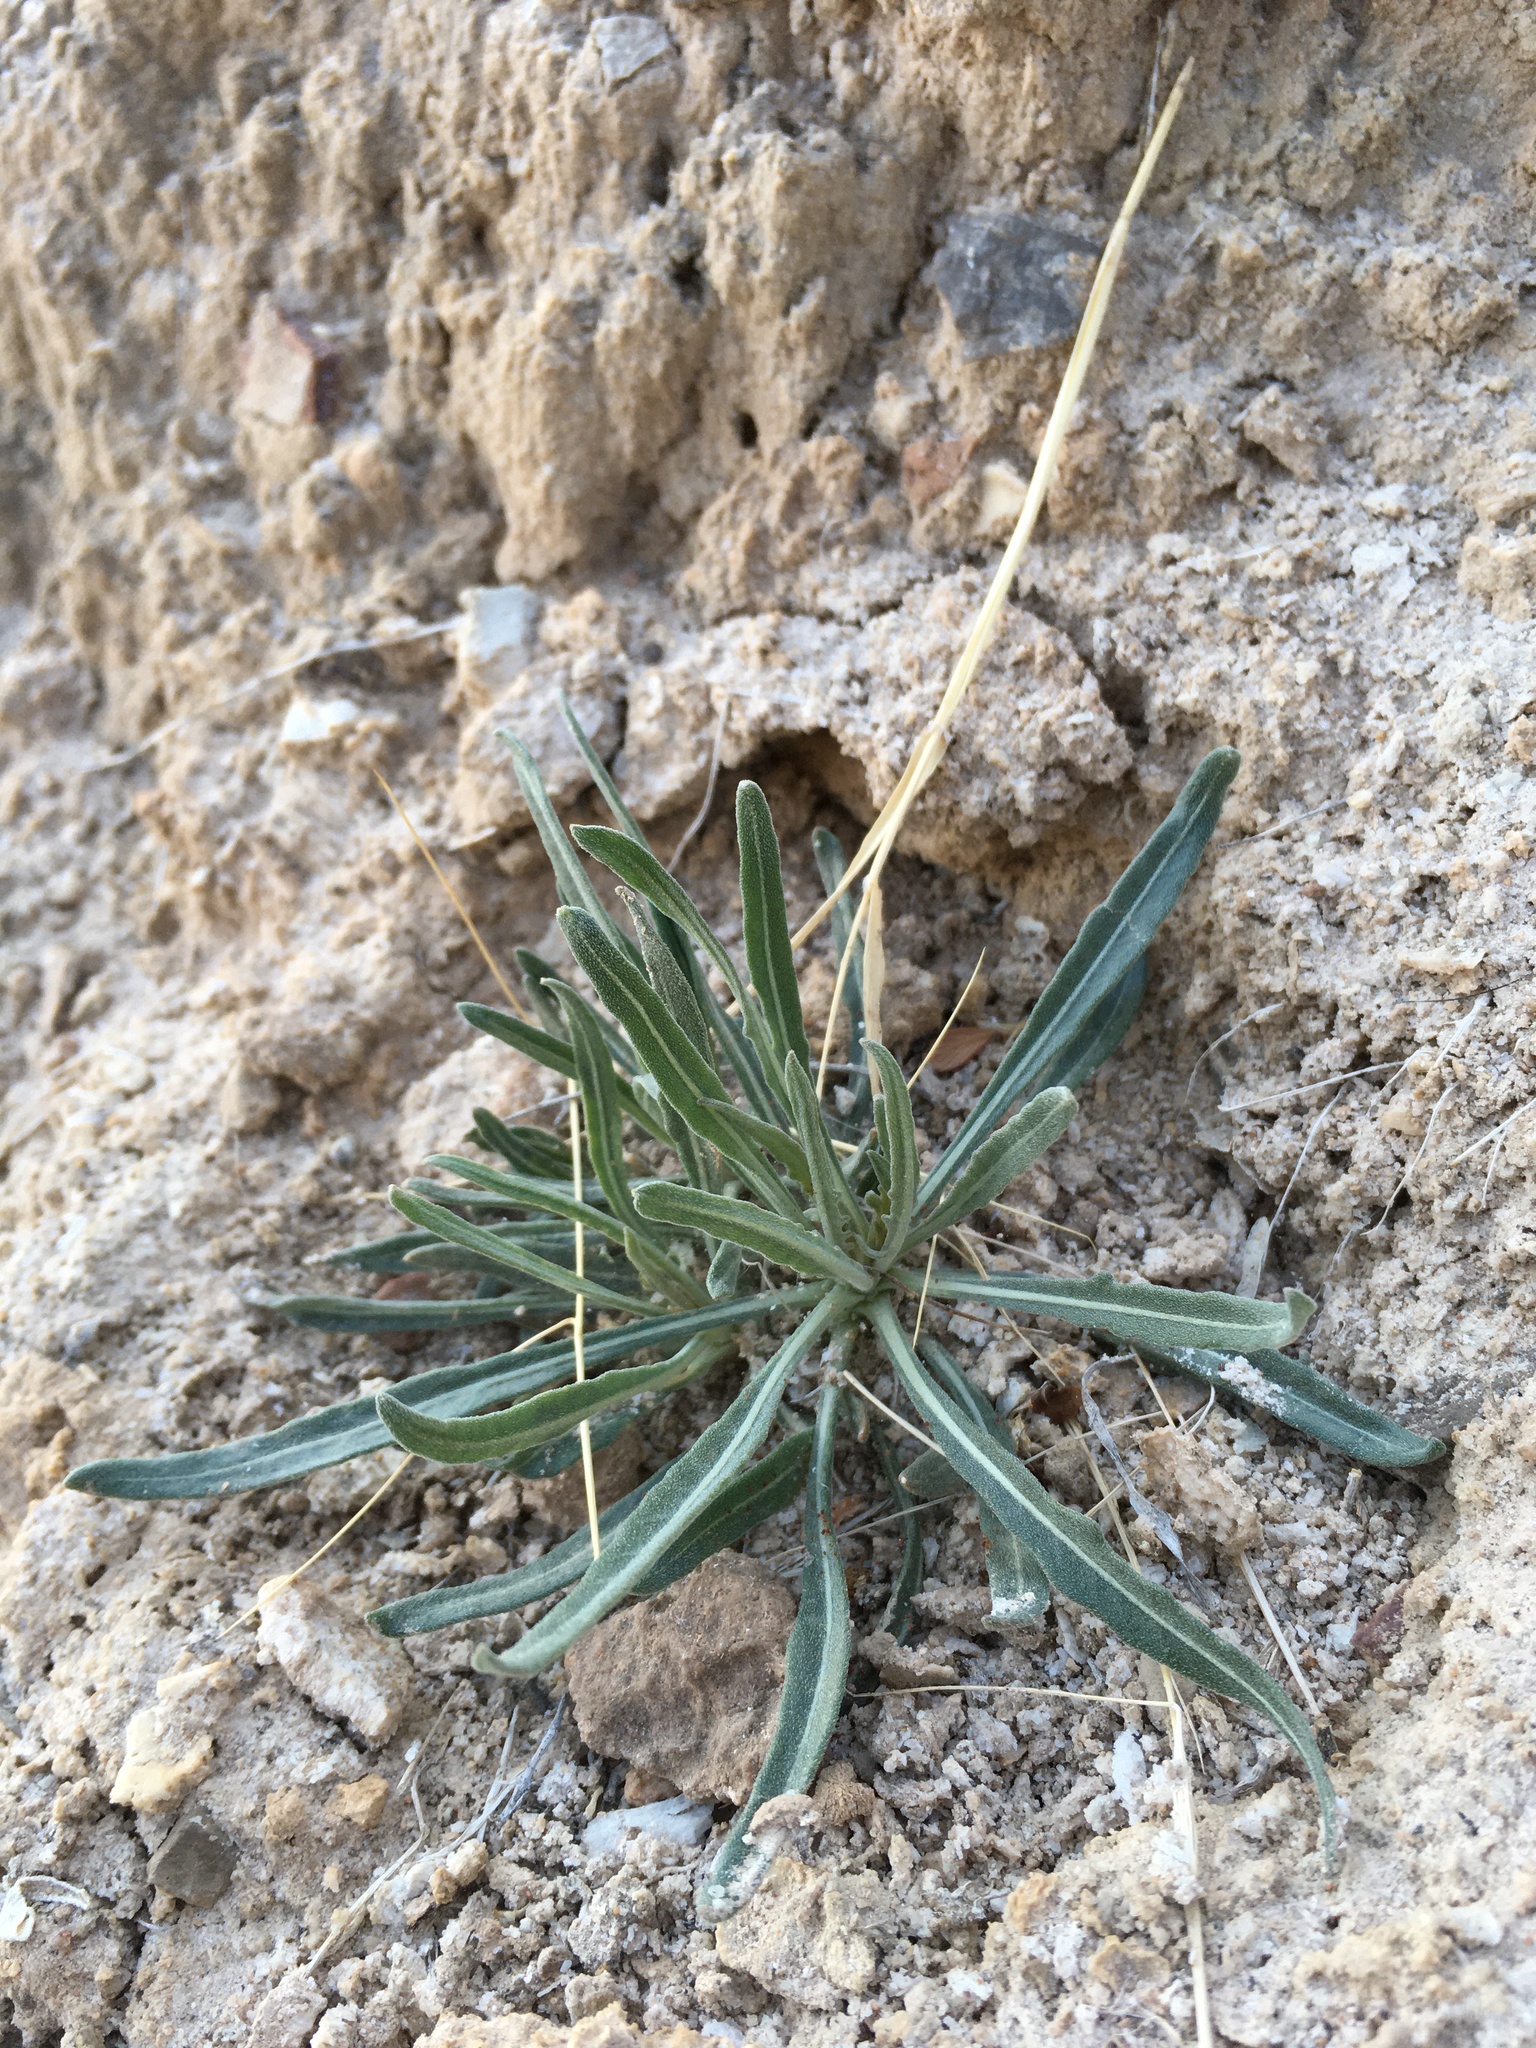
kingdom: Plantae
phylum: Tracheophyta
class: Magnoliopsida
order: Cornales
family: Loasaceae
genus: Mentzelia
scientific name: Mentzelia todiltoensis
